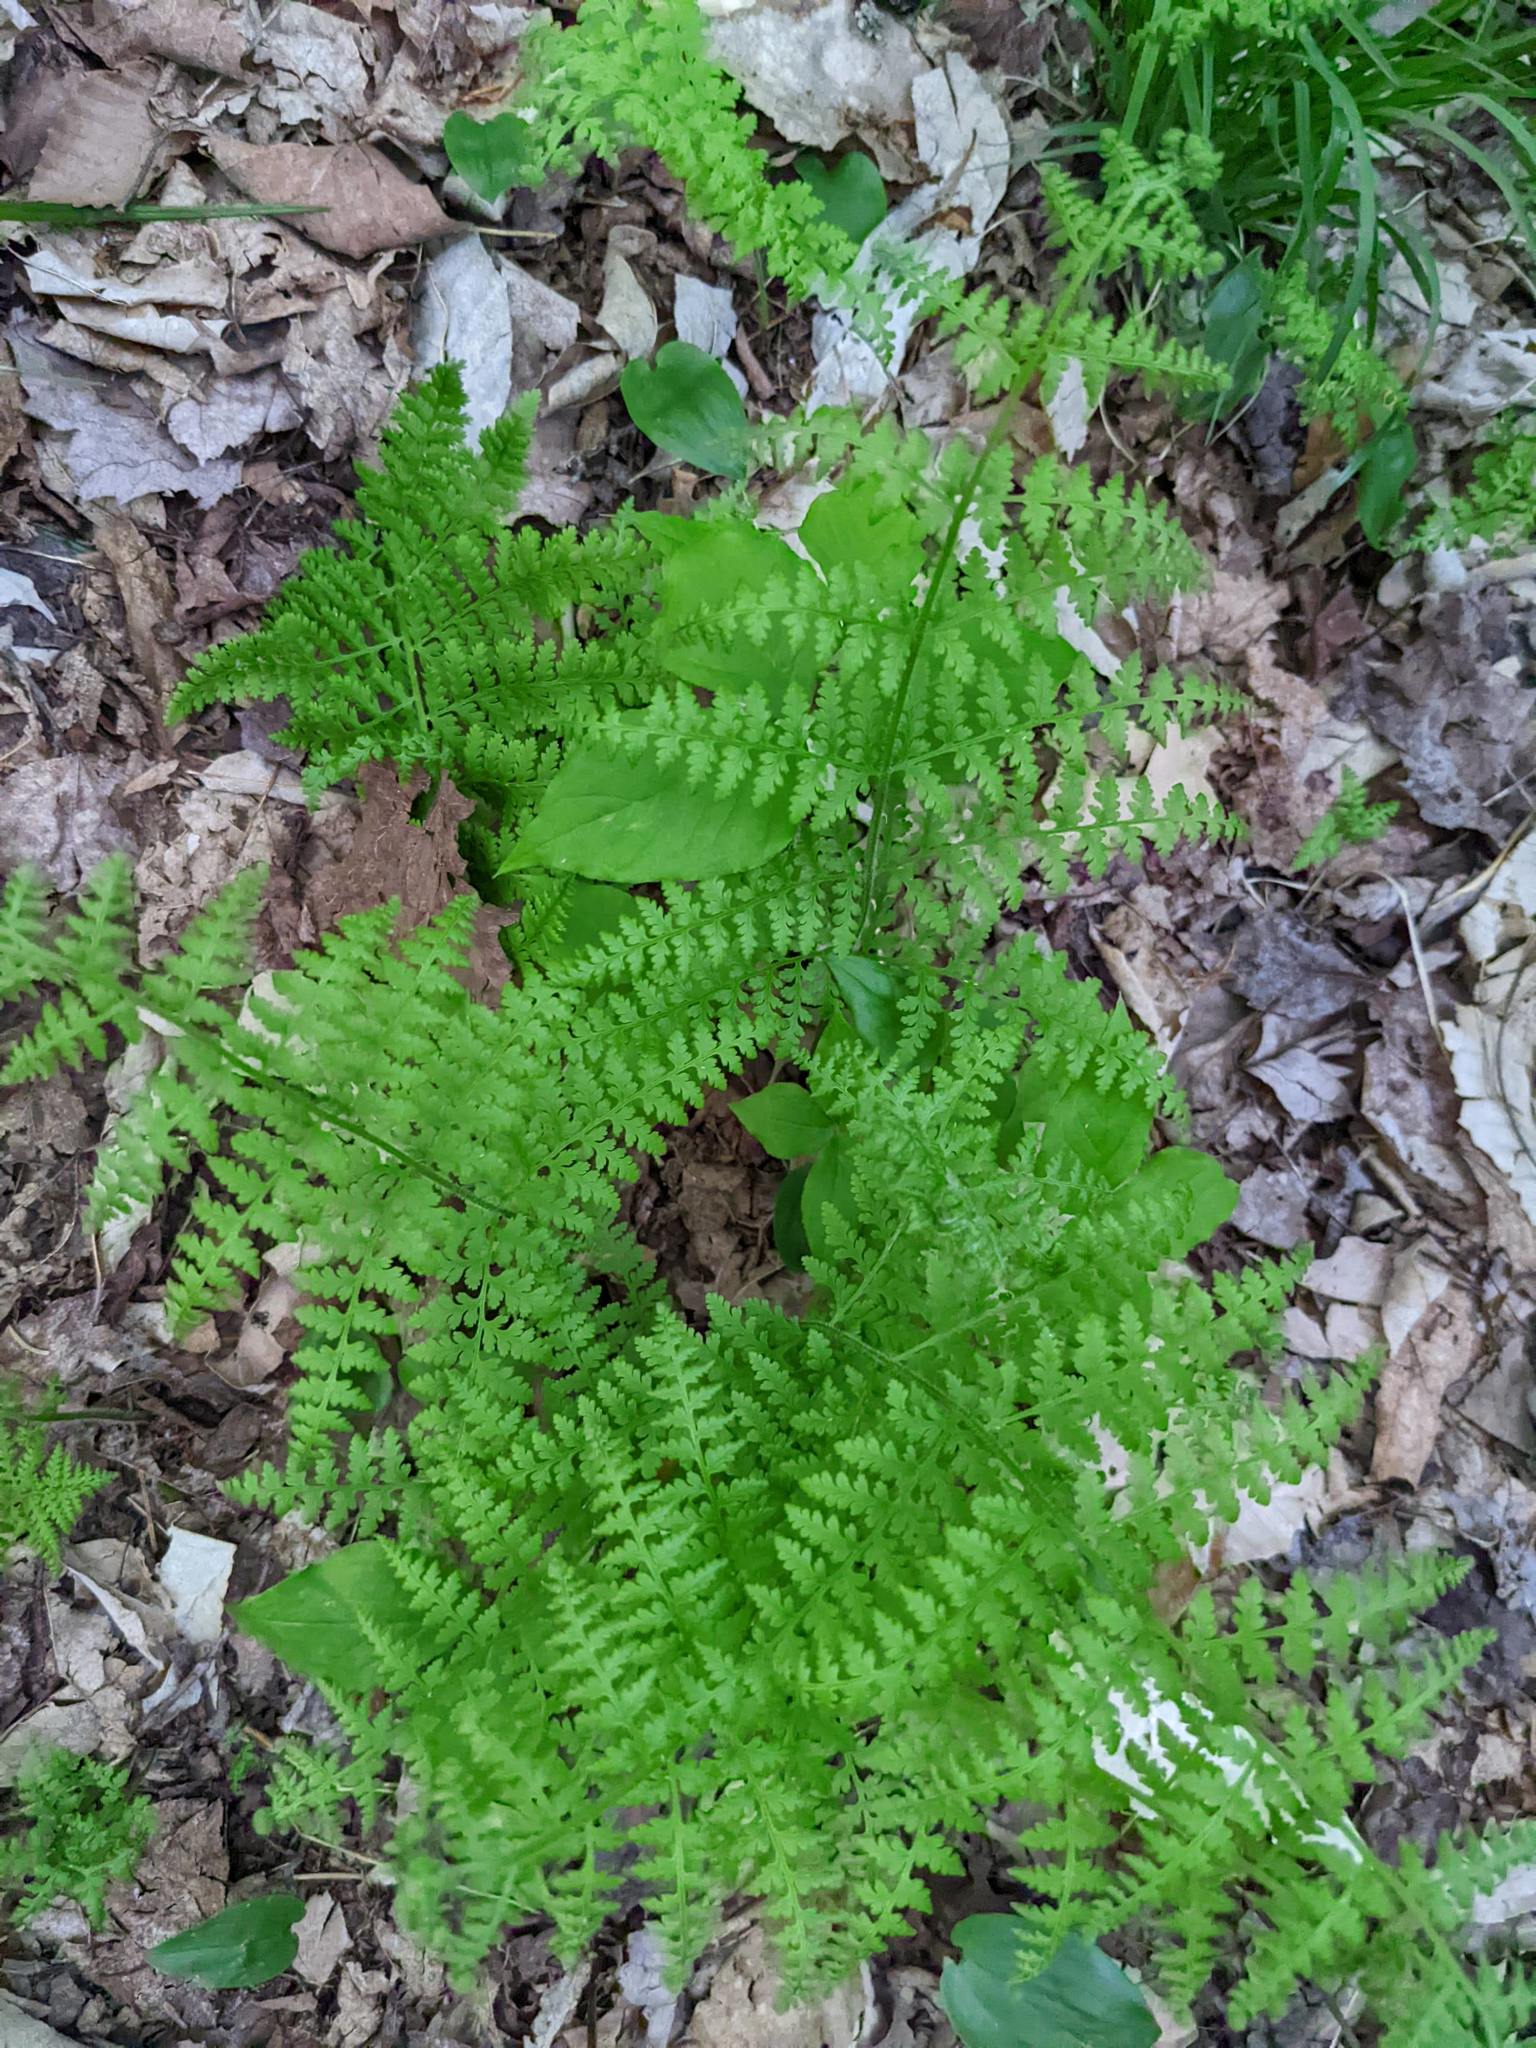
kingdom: Plantae
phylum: Tracheophyta
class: Polypodiopsida
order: Polypodiales
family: Dennstaedtiaceae
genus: Sitobolium
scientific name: Sitobolium punctilobum
